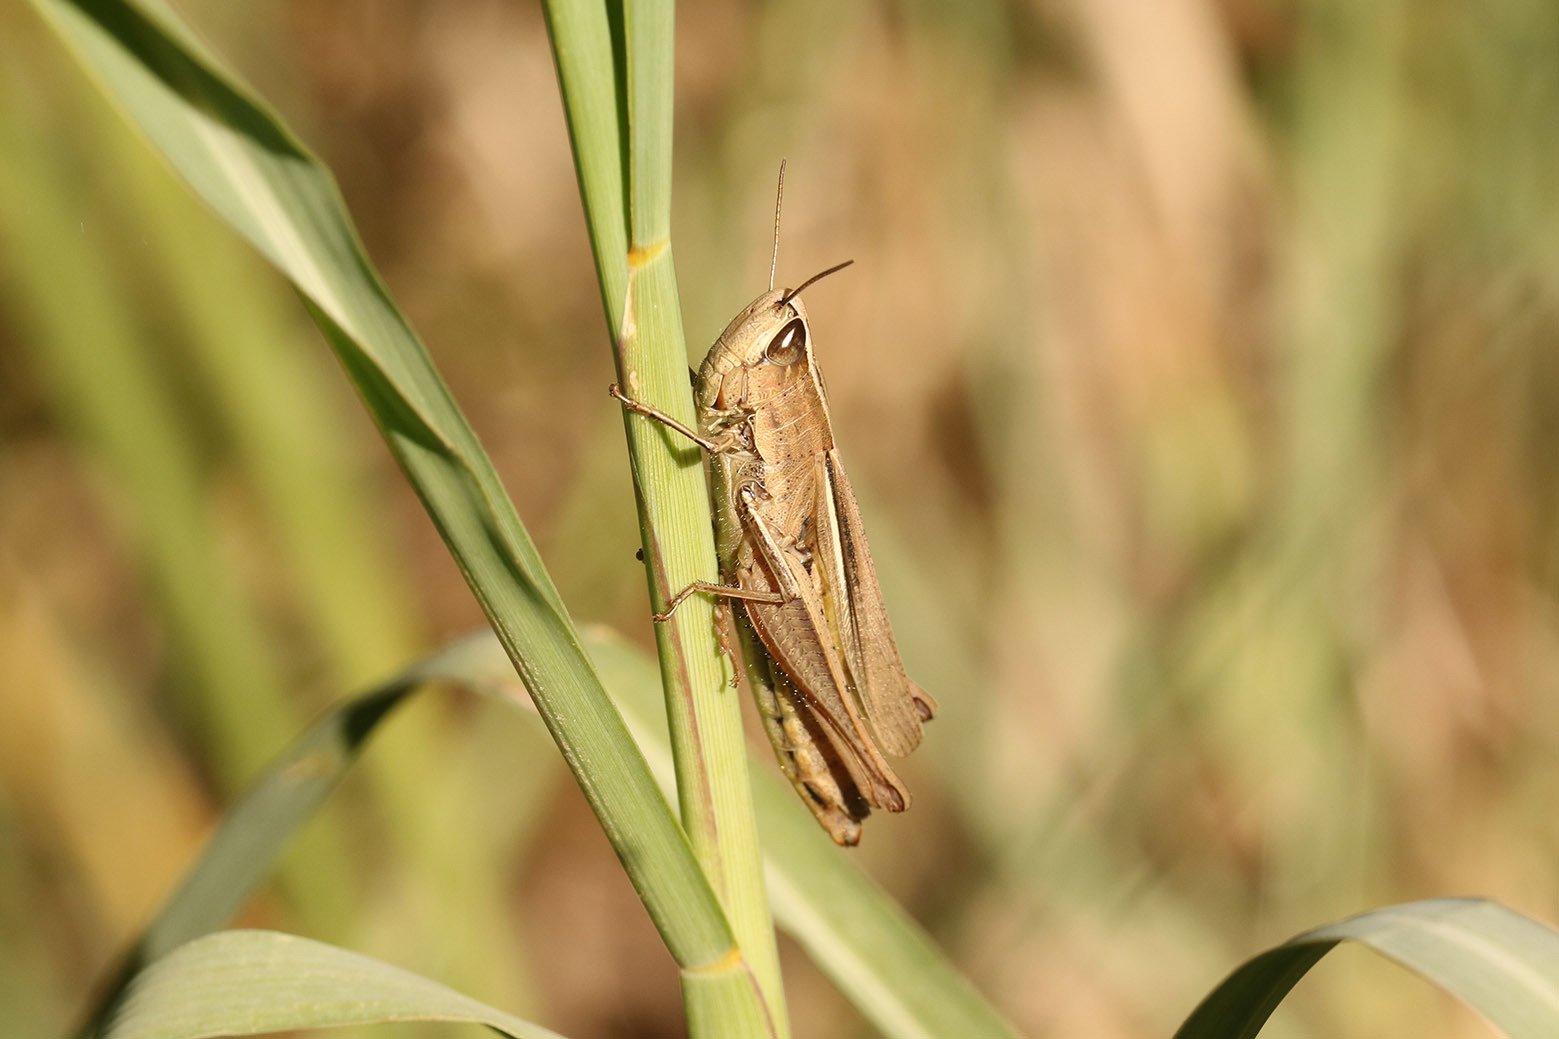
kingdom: Animalia
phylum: Arthropoda
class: Insecta
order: Orthoptera
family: Acrididae
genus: Amblytropidia
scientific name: Amblytropidia australis
